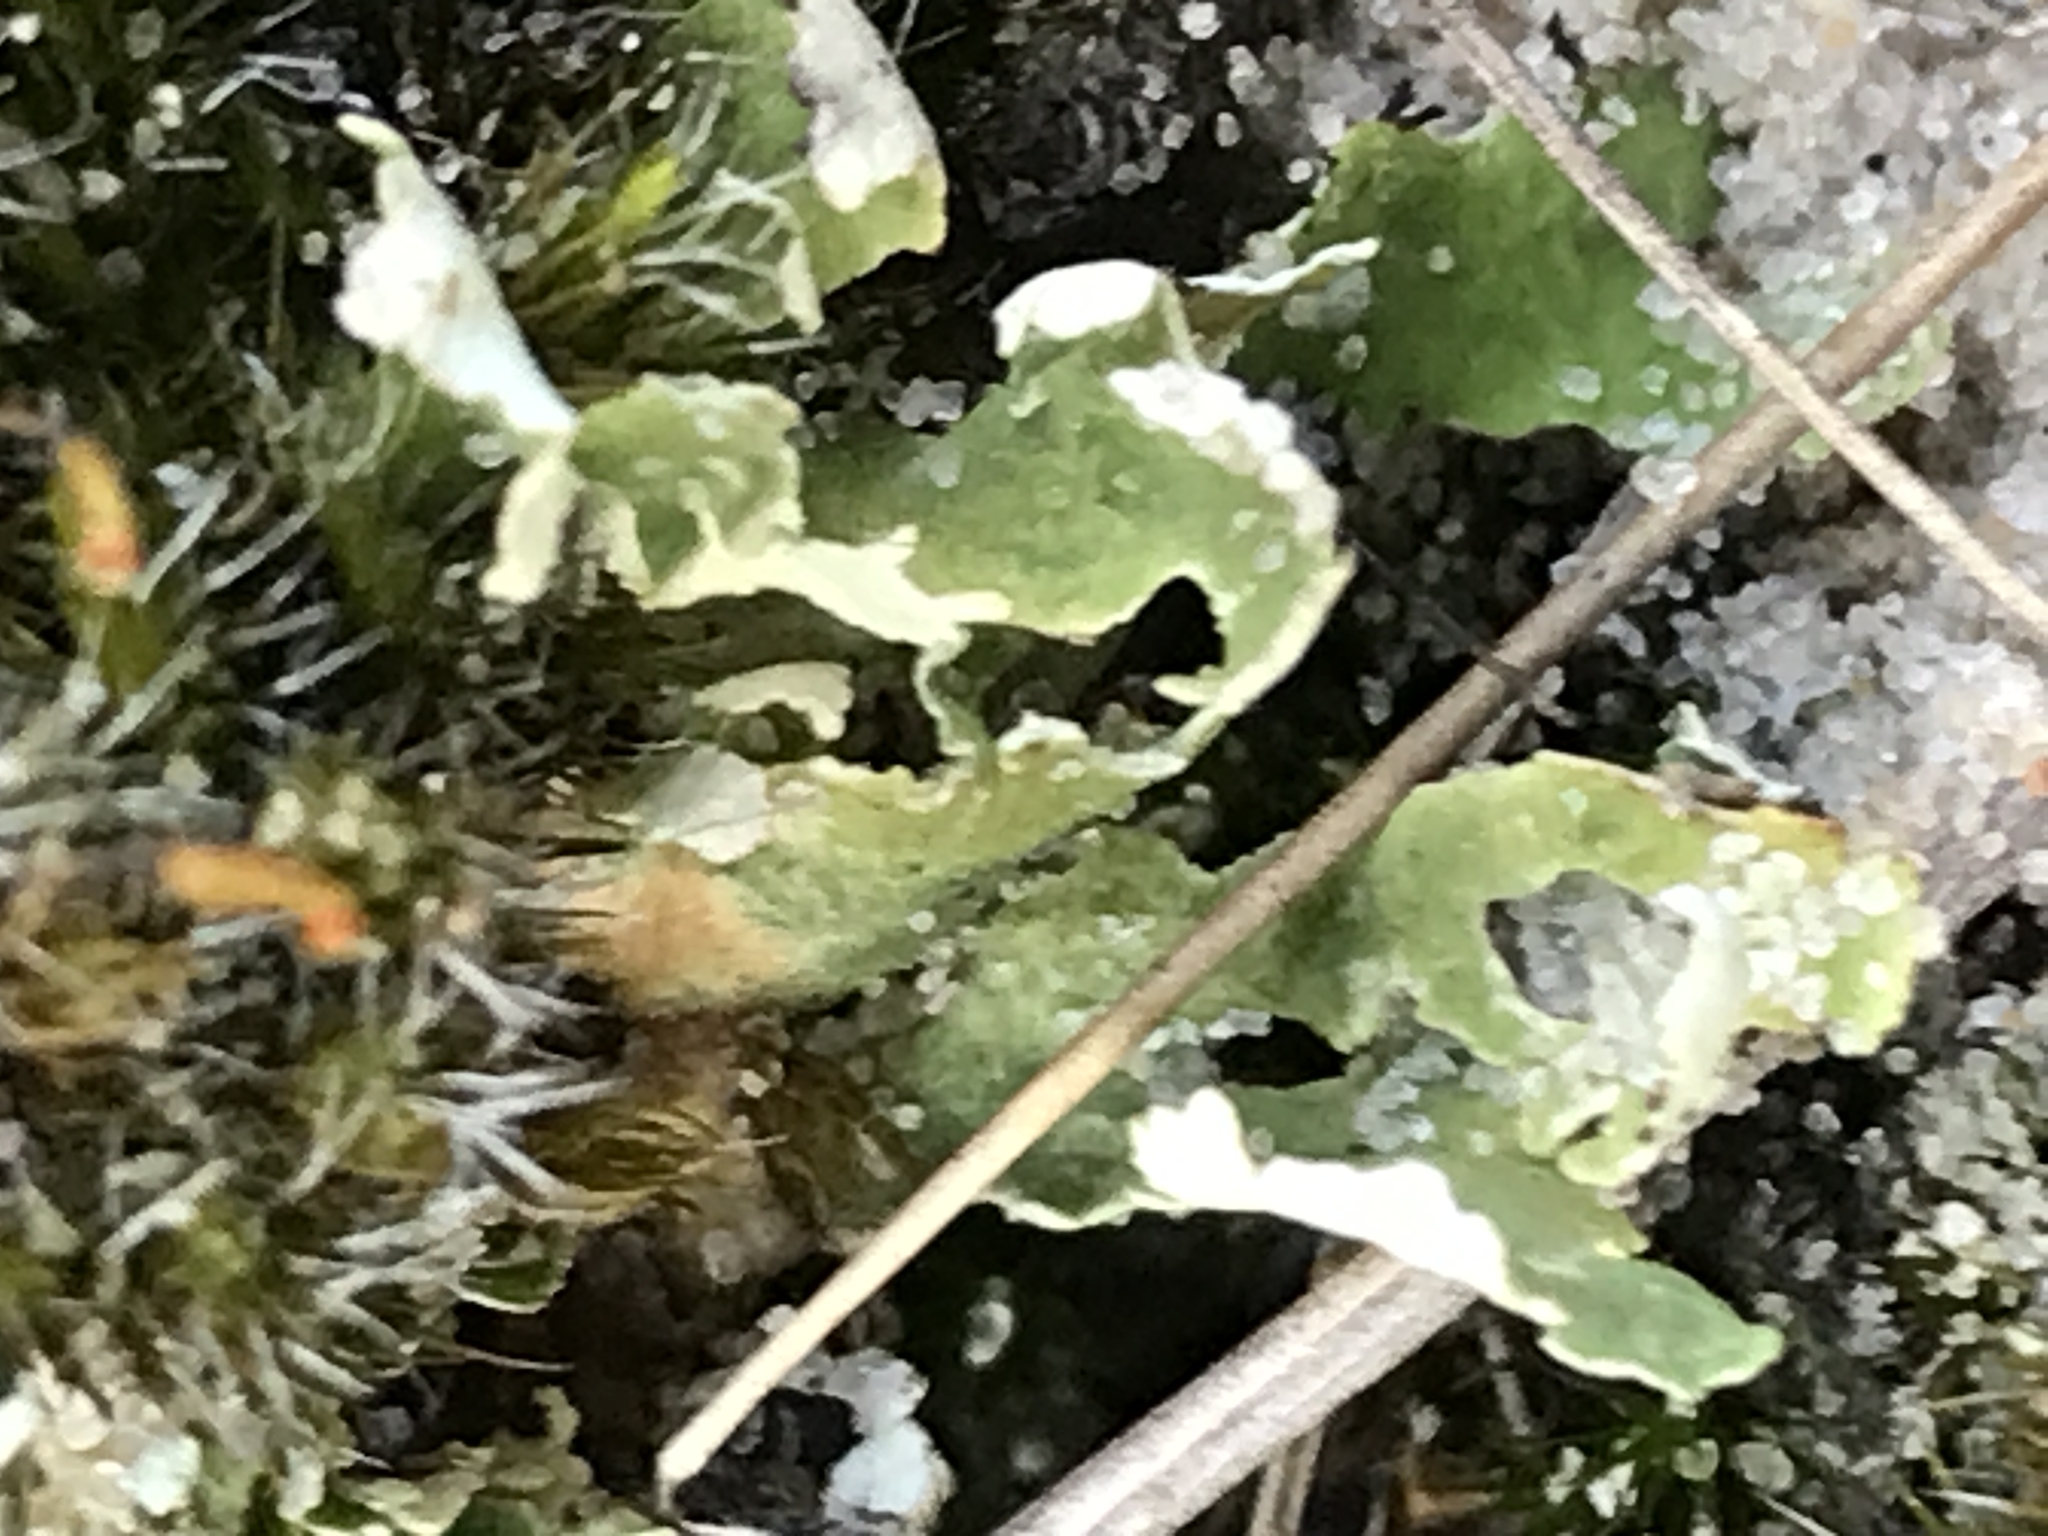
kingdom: Fungi
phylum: Ascomycota
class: Lecanoromycetes
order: Lecanorales
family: Cladoniaceae
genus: Cladonia
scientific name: Cladonia foliacea
